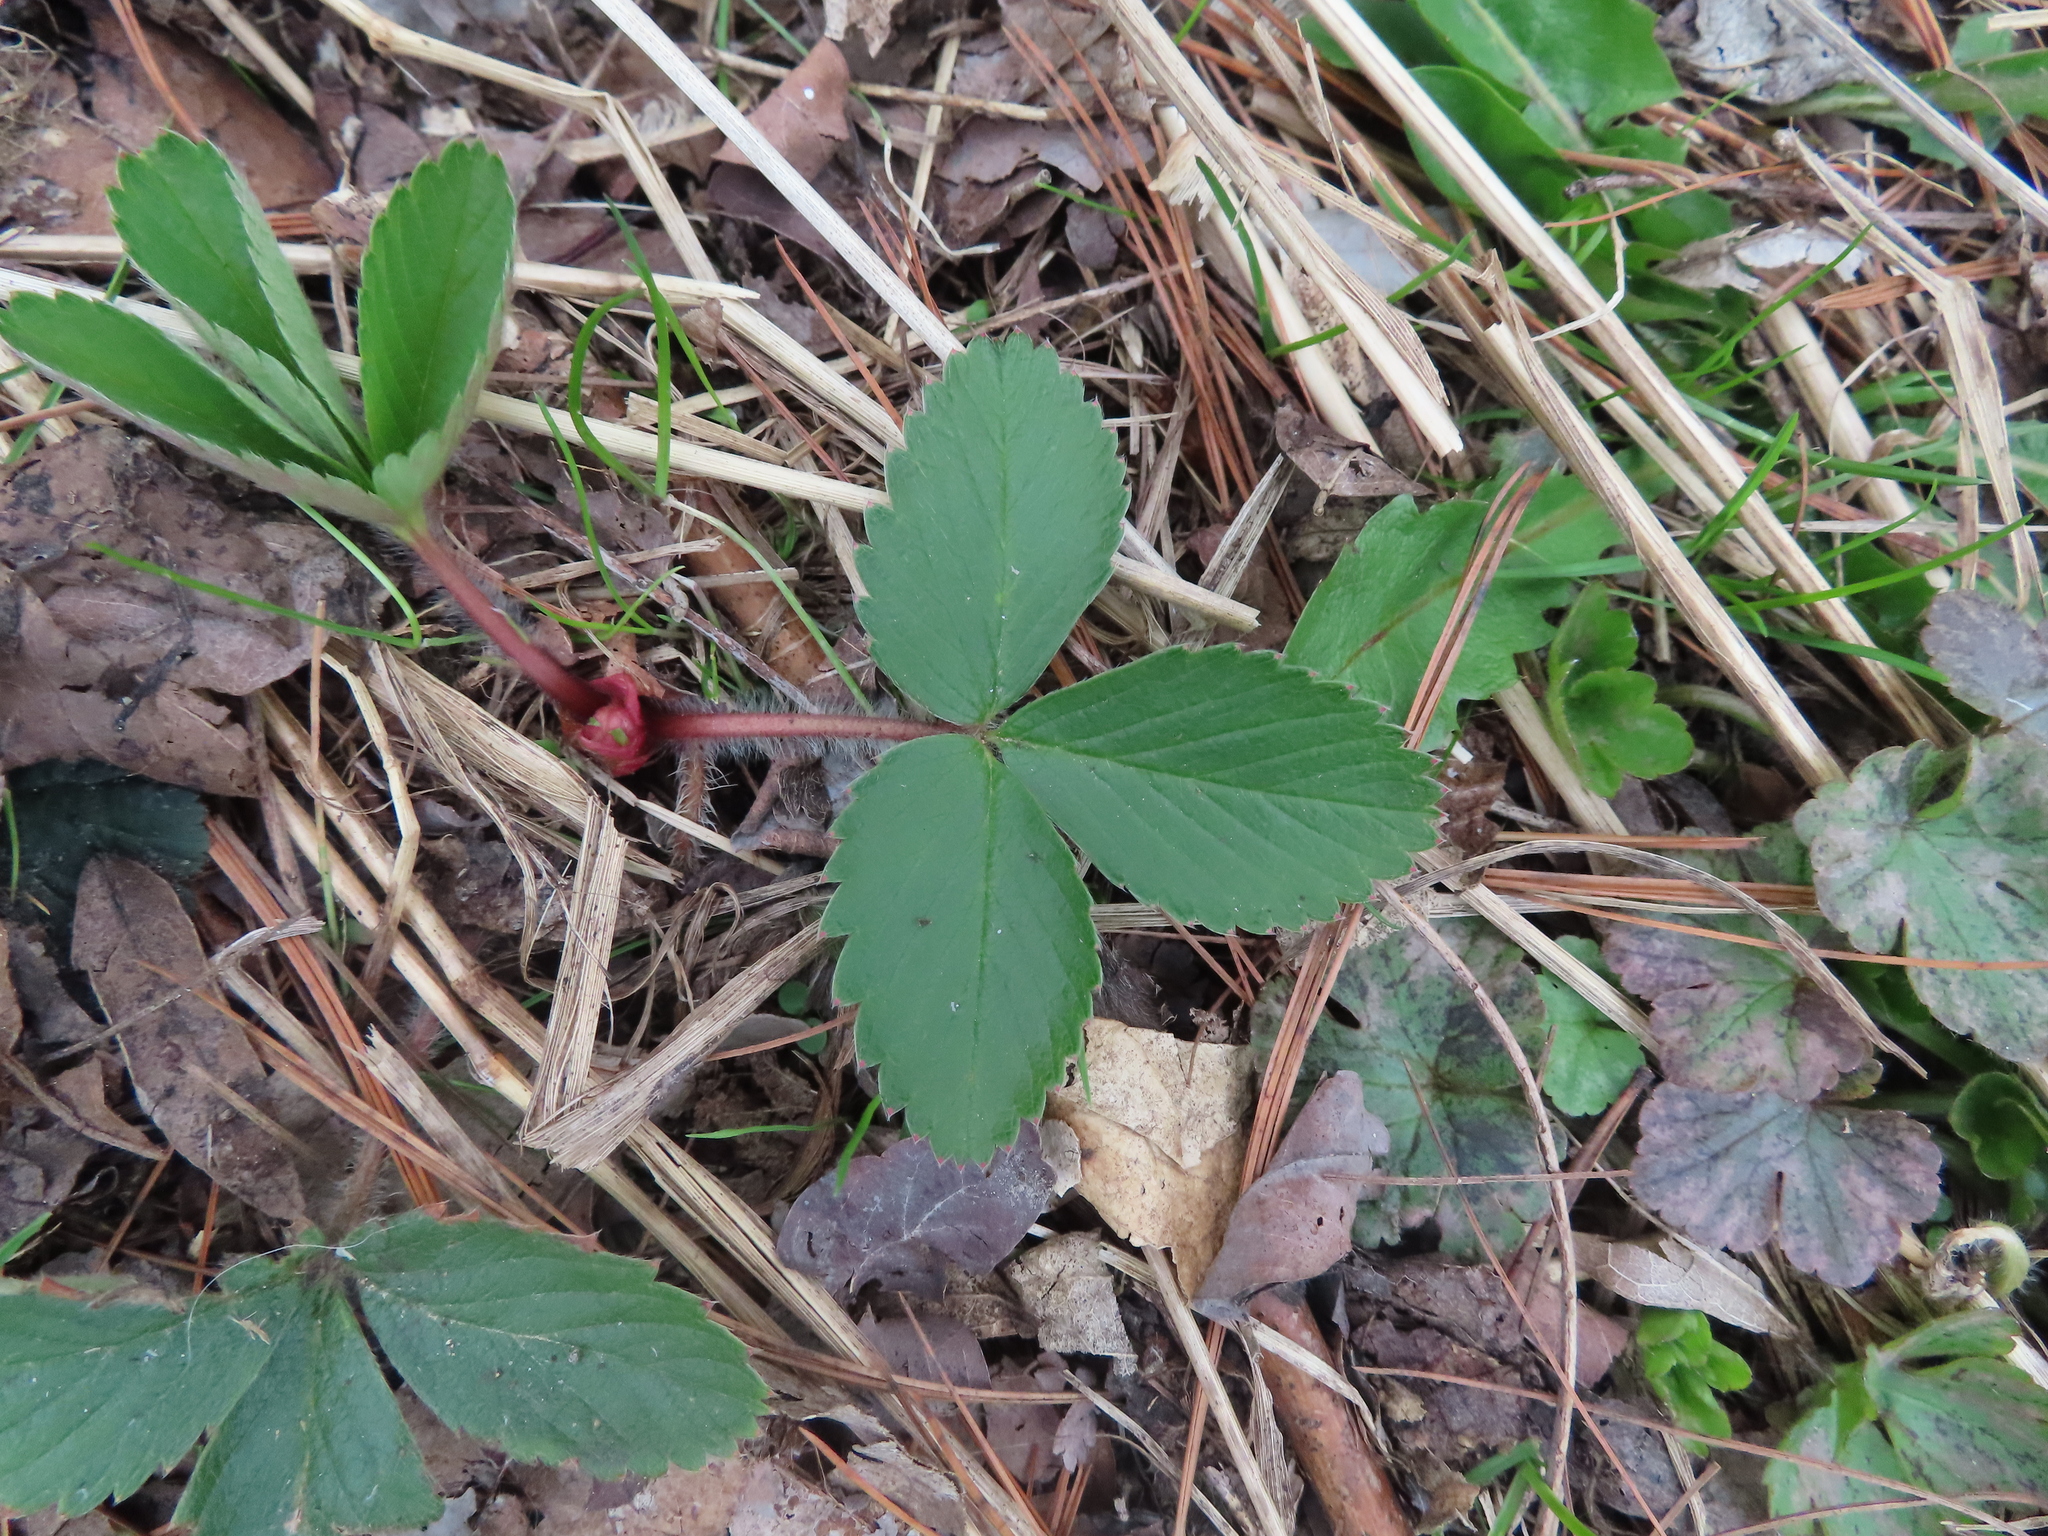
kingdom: Plantae
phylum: Tracheophyta
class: Magnoliopsida
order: Rosales
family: Rosaceae
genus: Fragaria
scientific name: Fragaria virginiana
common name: Thickleaved wild strawberry
